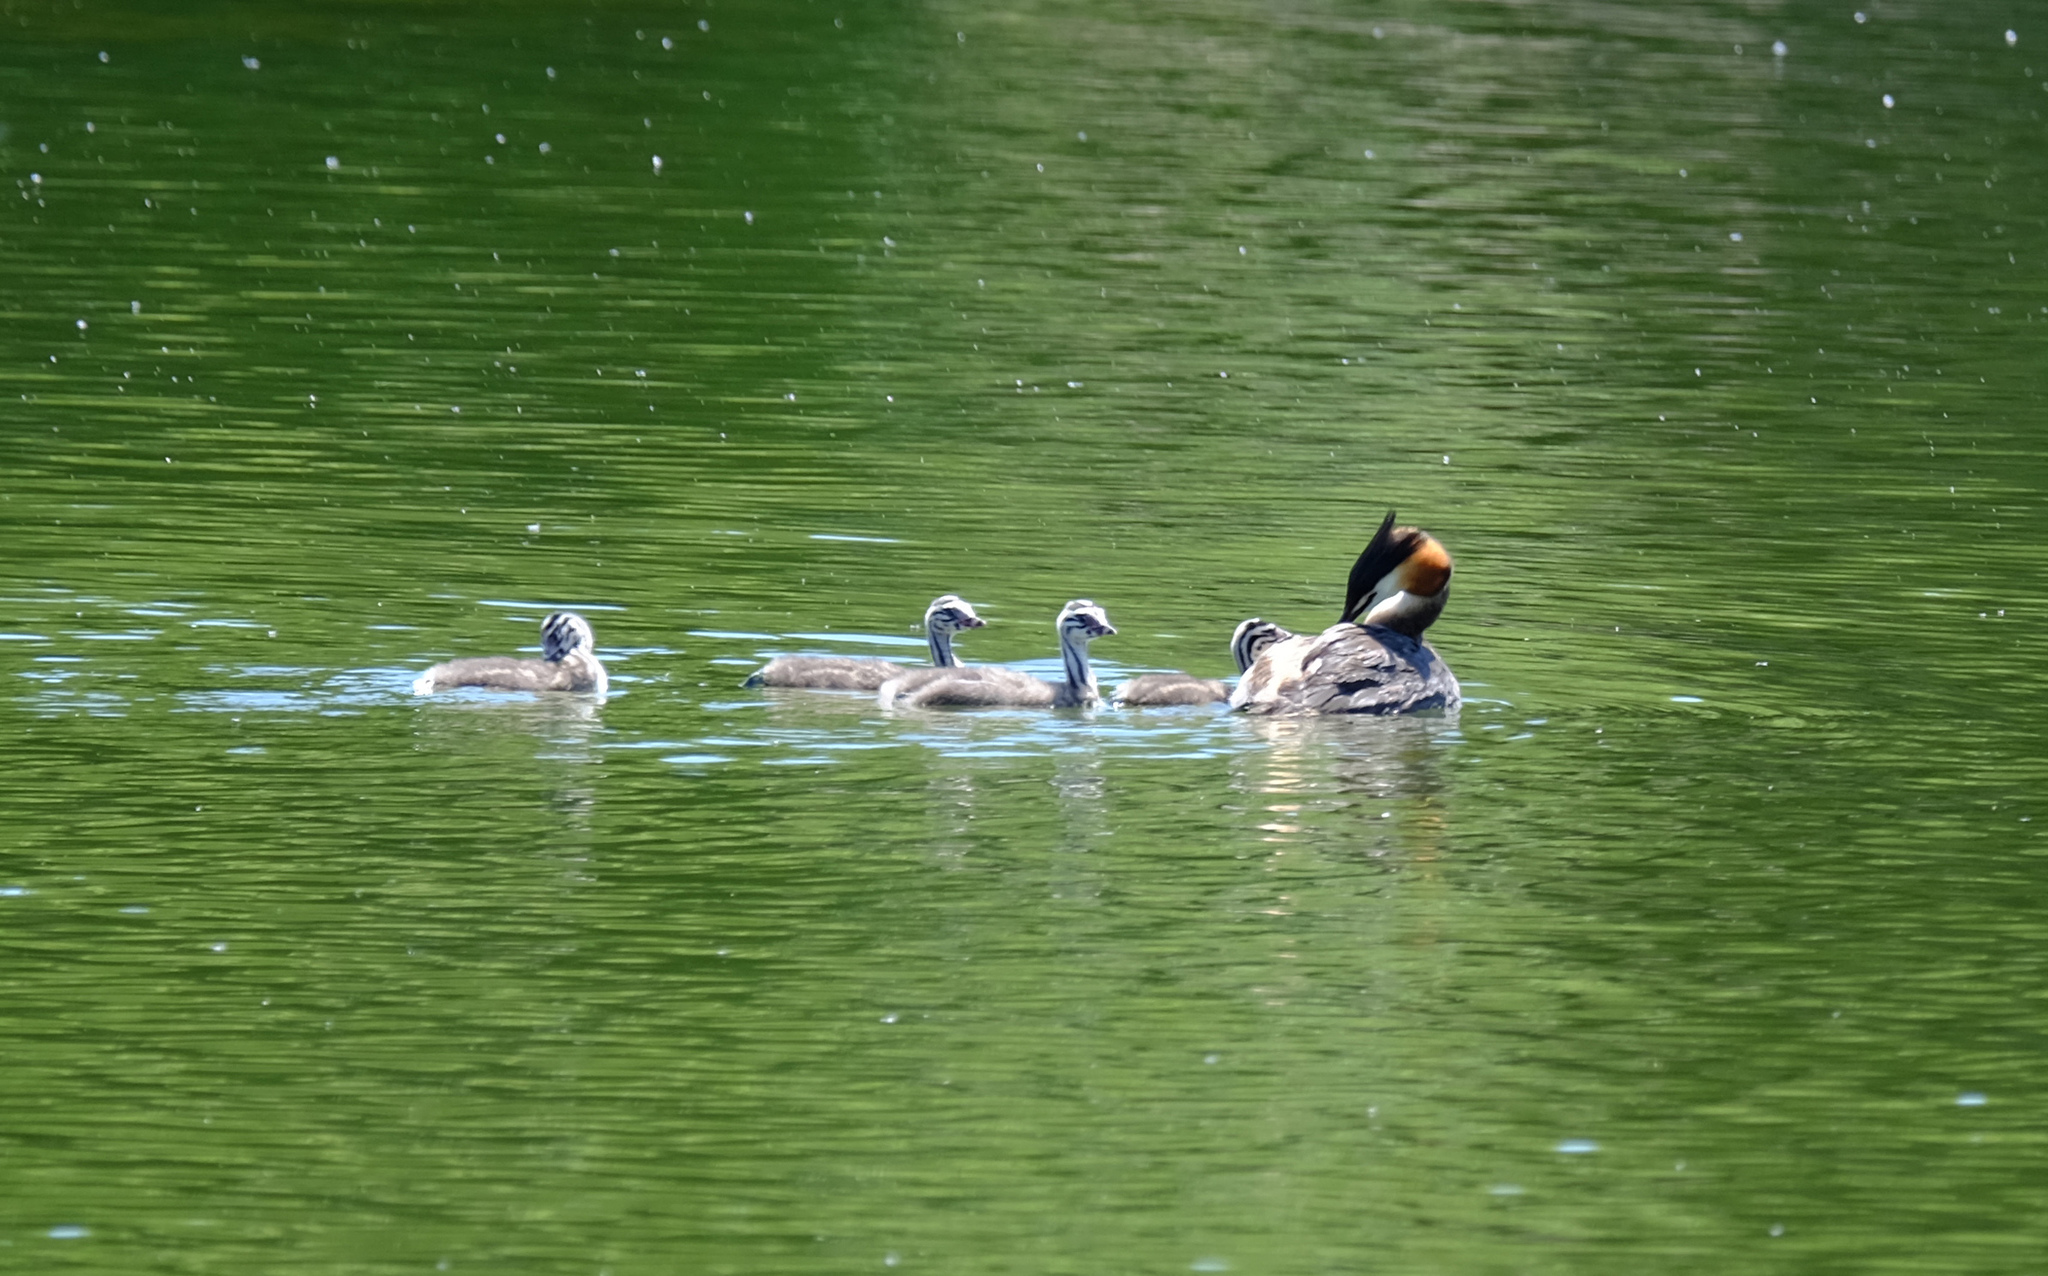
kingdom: Animalia
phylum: Chordata
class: Aves
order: Podicipediformes
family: Podicipedidae
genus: Podiceps
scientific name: Podiceps cristatus
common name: Great crested grebe
